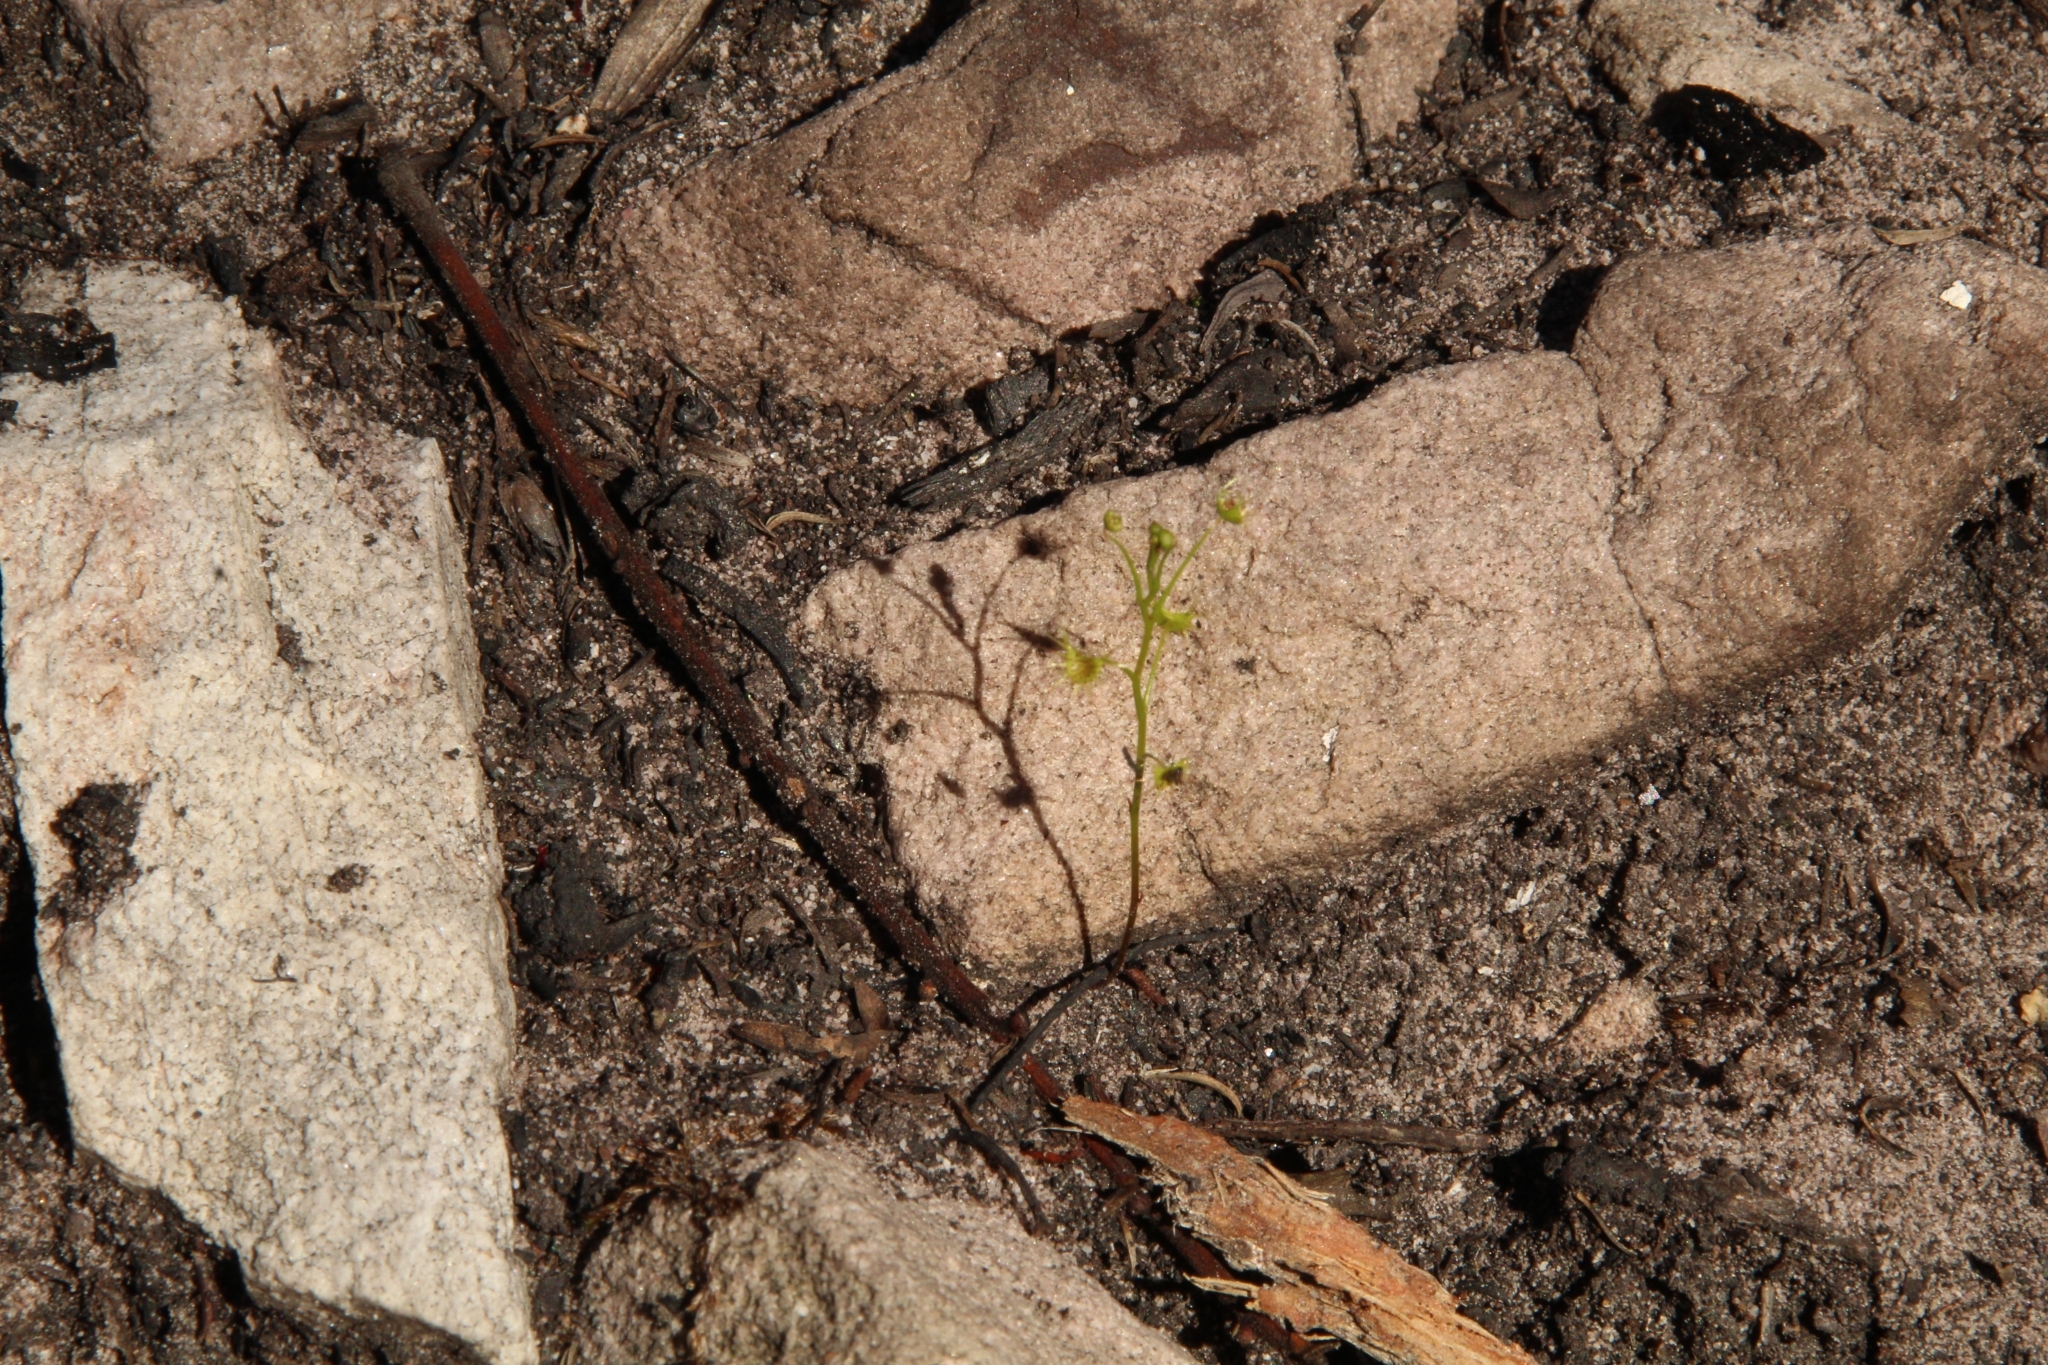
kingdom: Plantae
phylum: Tracheophyta
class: Magnoliopsida
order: Caryophyllales
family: Droseraceae
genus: Drosera
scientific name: Drosera modesta
